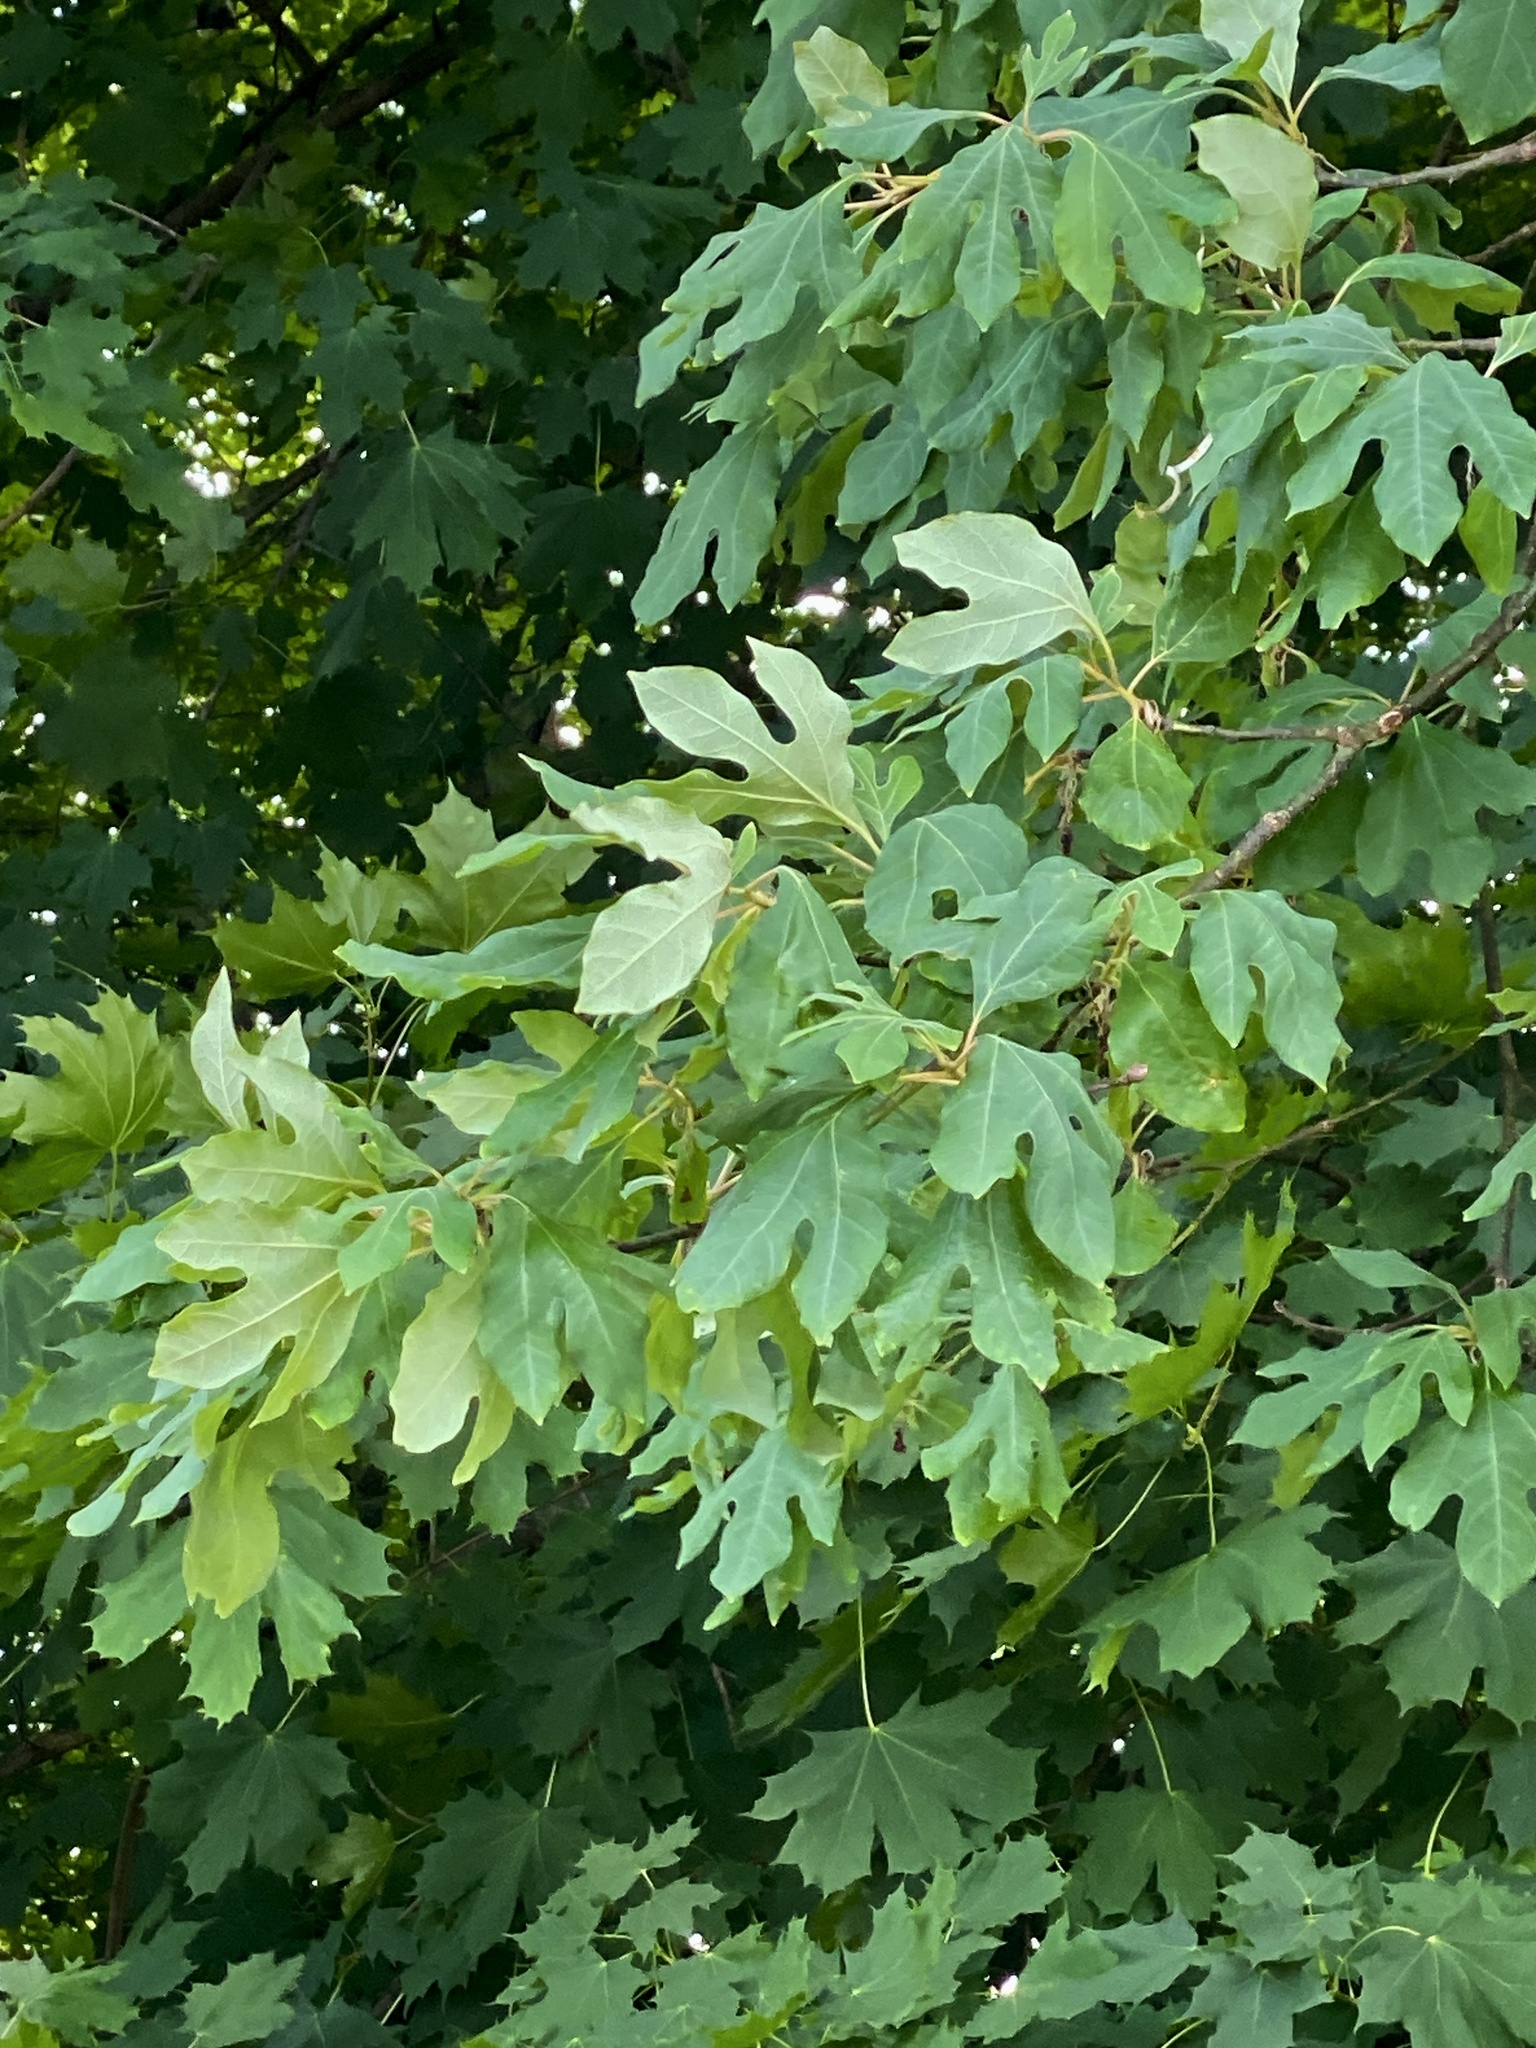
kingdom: Plantae
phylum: Tracheophyta
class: Magnoliopsida
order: Laurales
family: Lauraceae
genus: Sassafras
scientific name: Sassafras albidum
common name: Sassafras
